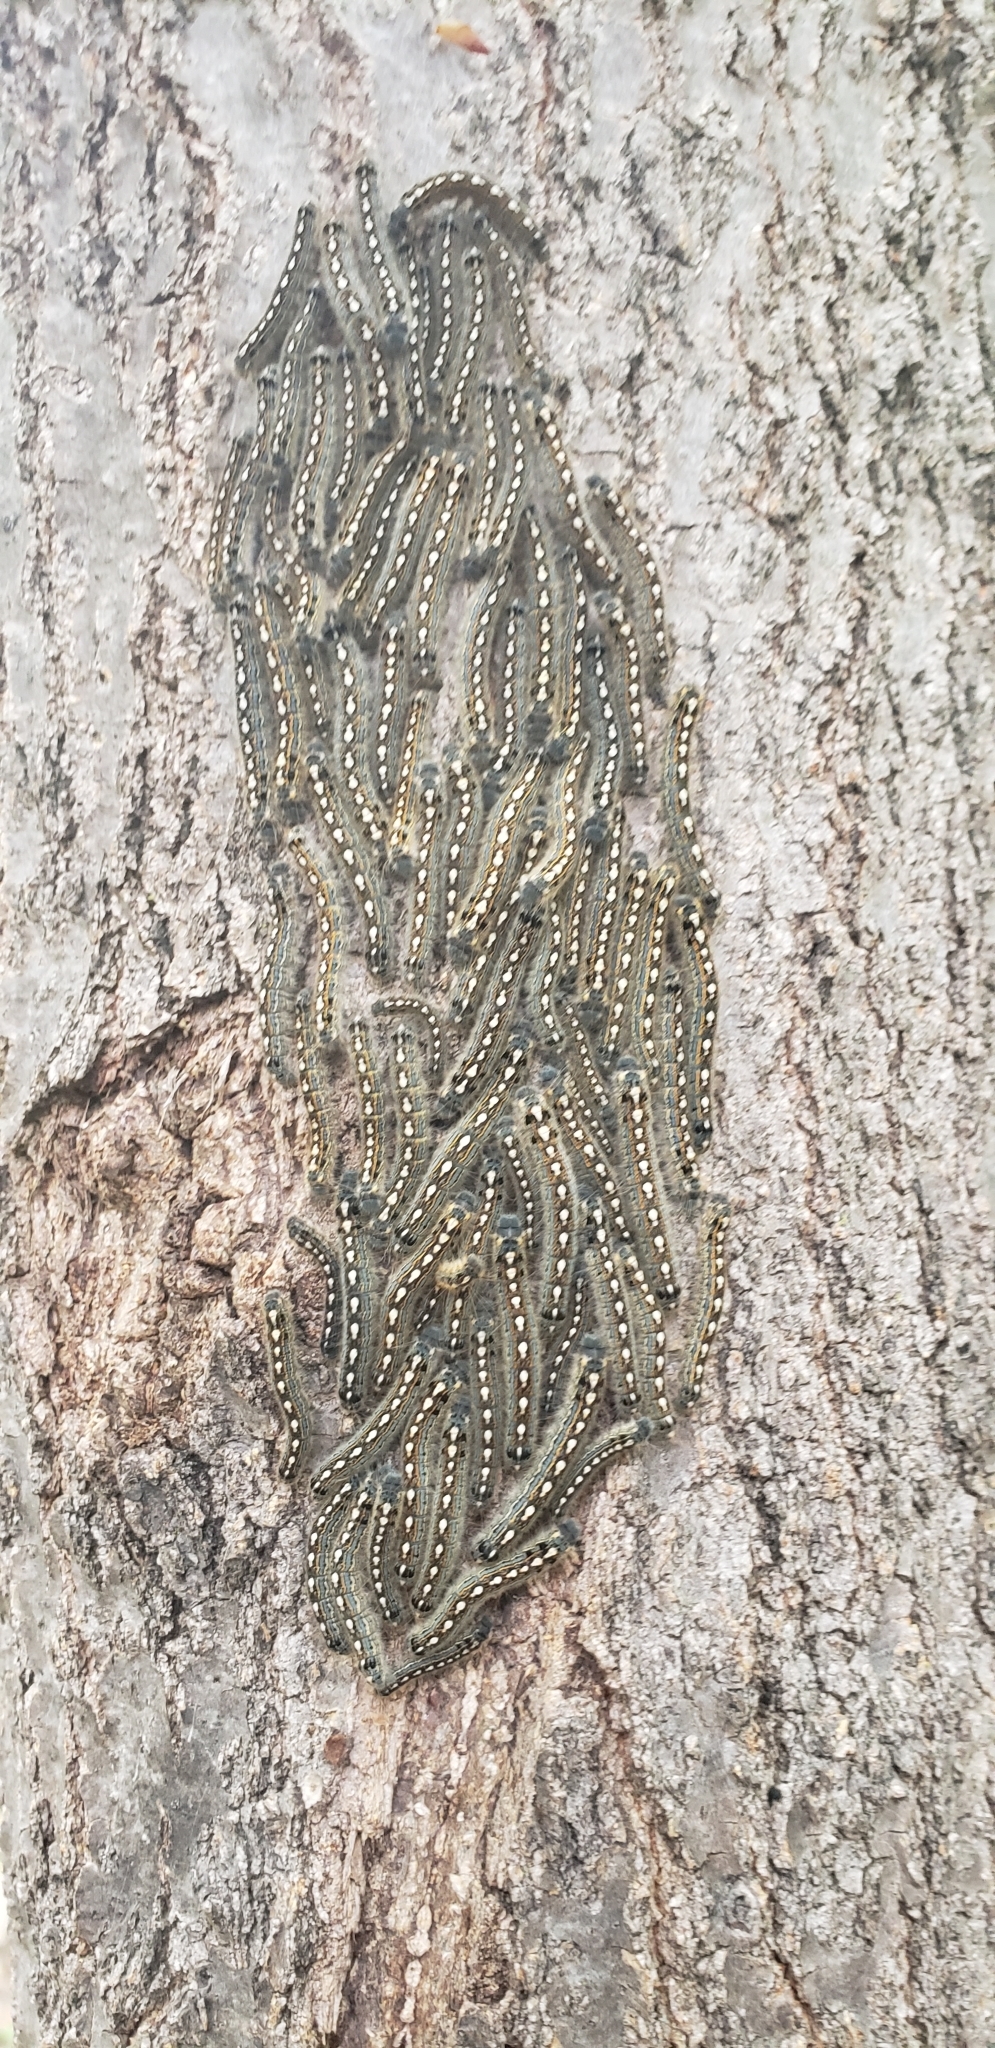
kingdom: Animalia
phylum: Arthropoda
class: Insecta
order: Lepidoptera
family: Lasiocampidae
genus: Malacosoma
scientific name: Malacosoma disstria
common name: Forest tent caterpillar
